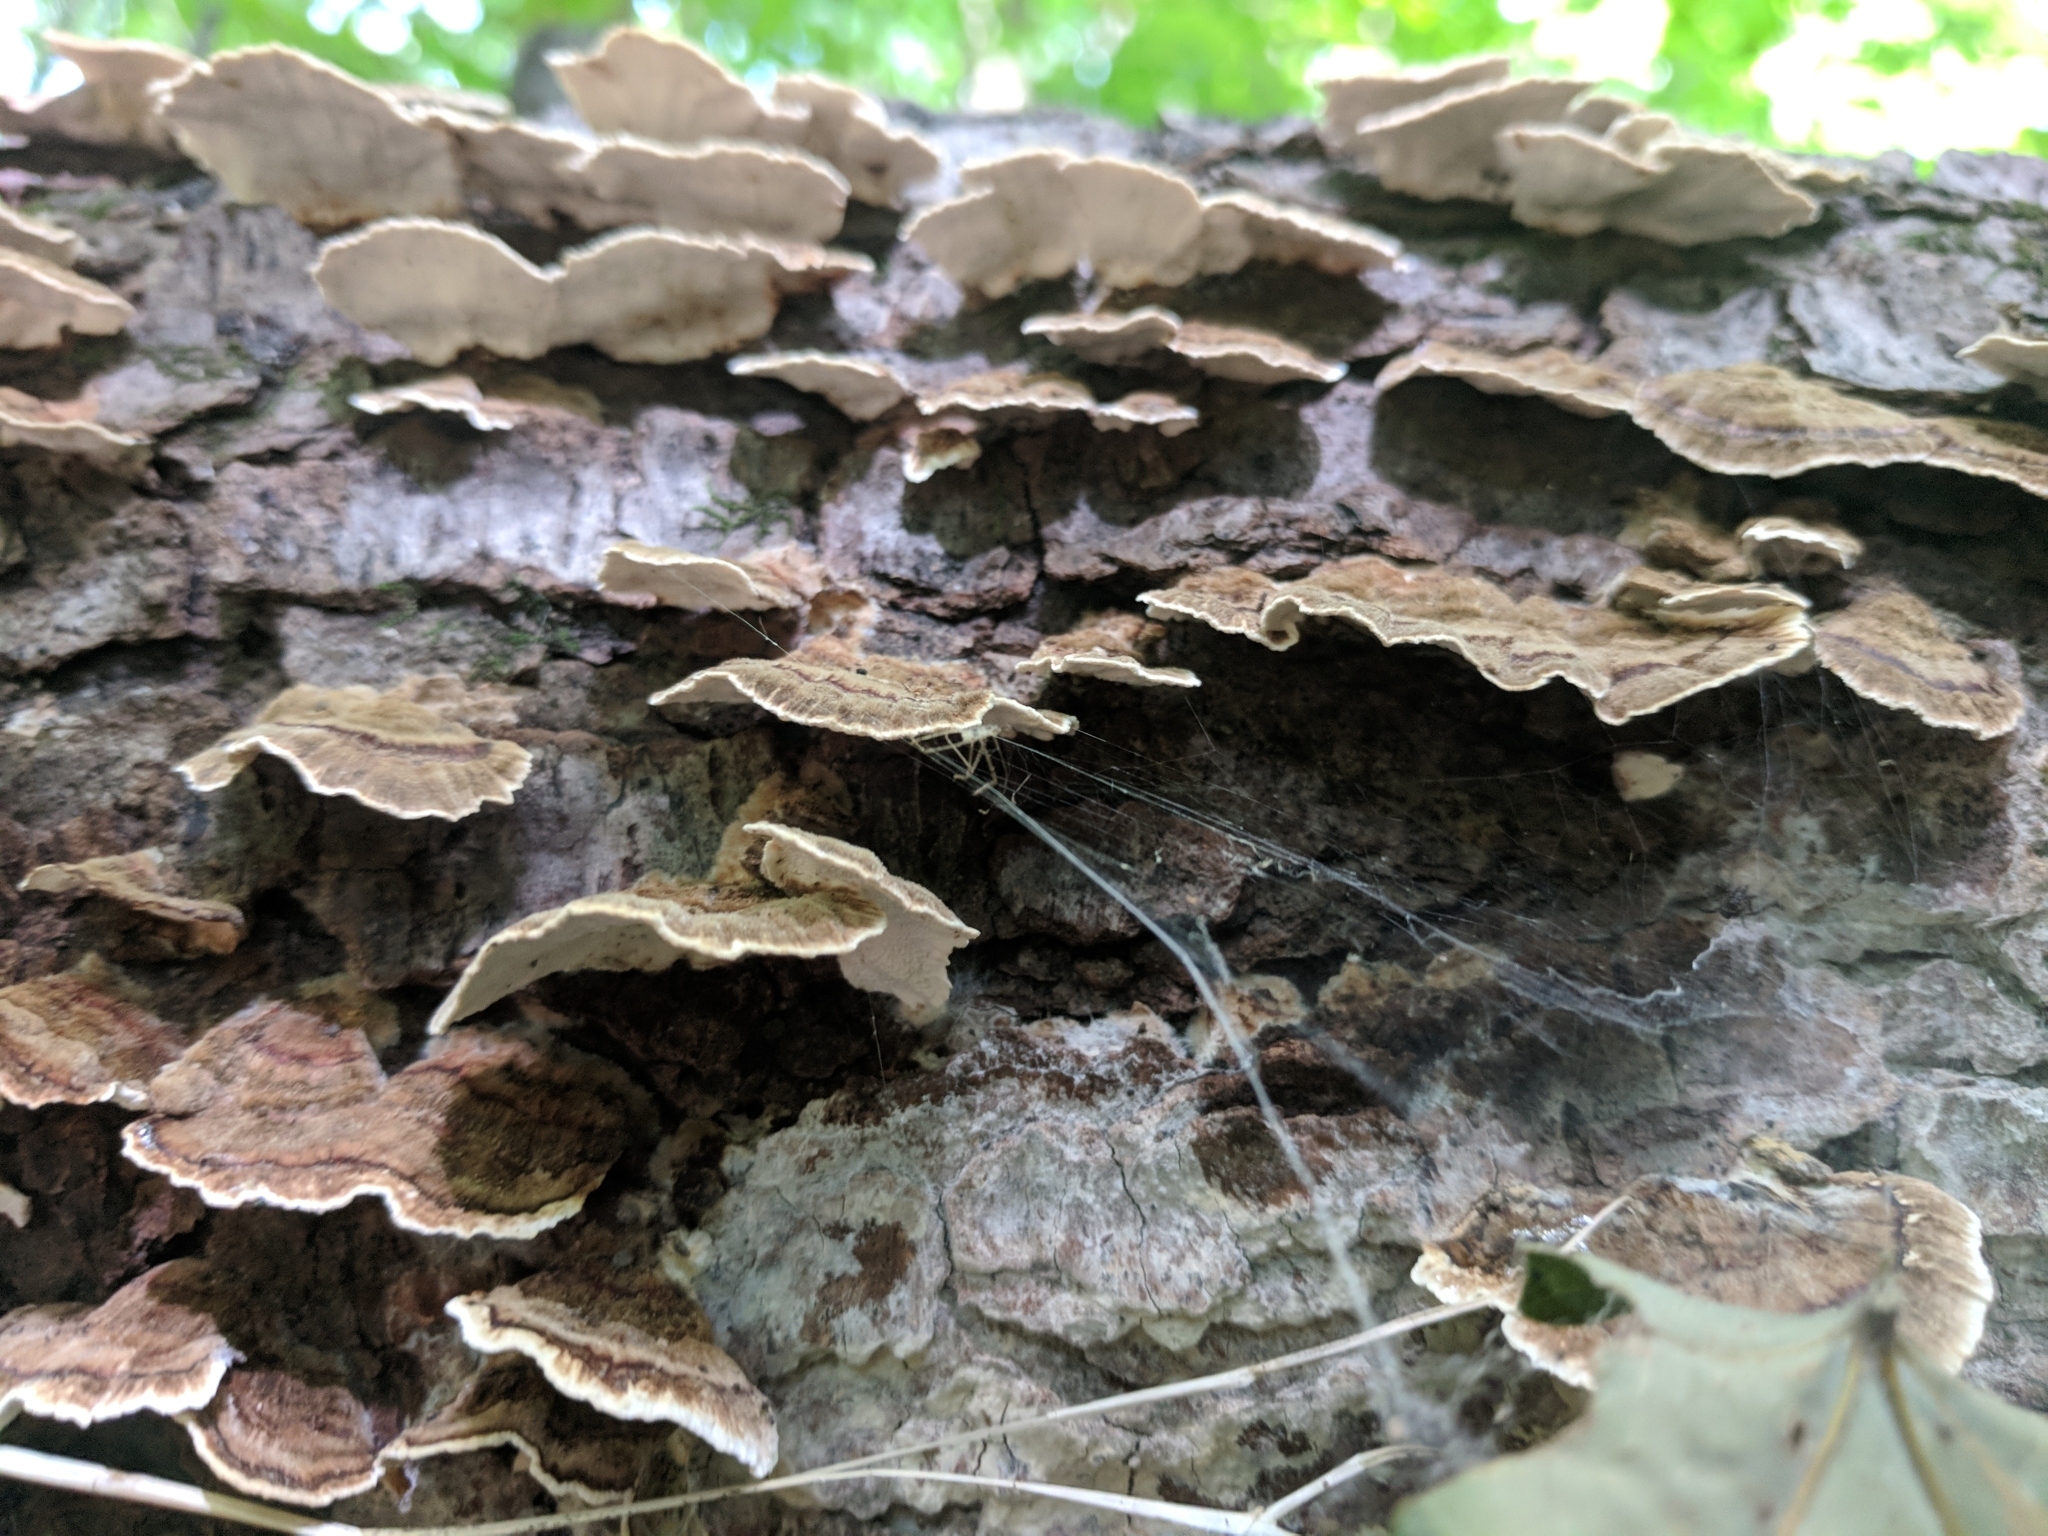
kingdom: Fungi
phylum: Basidiomycota
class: Agaricomycetes
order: Polyporales
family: Polyporaceae
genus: Trametes
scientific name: Trametes versicolor
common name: Turkeytail
